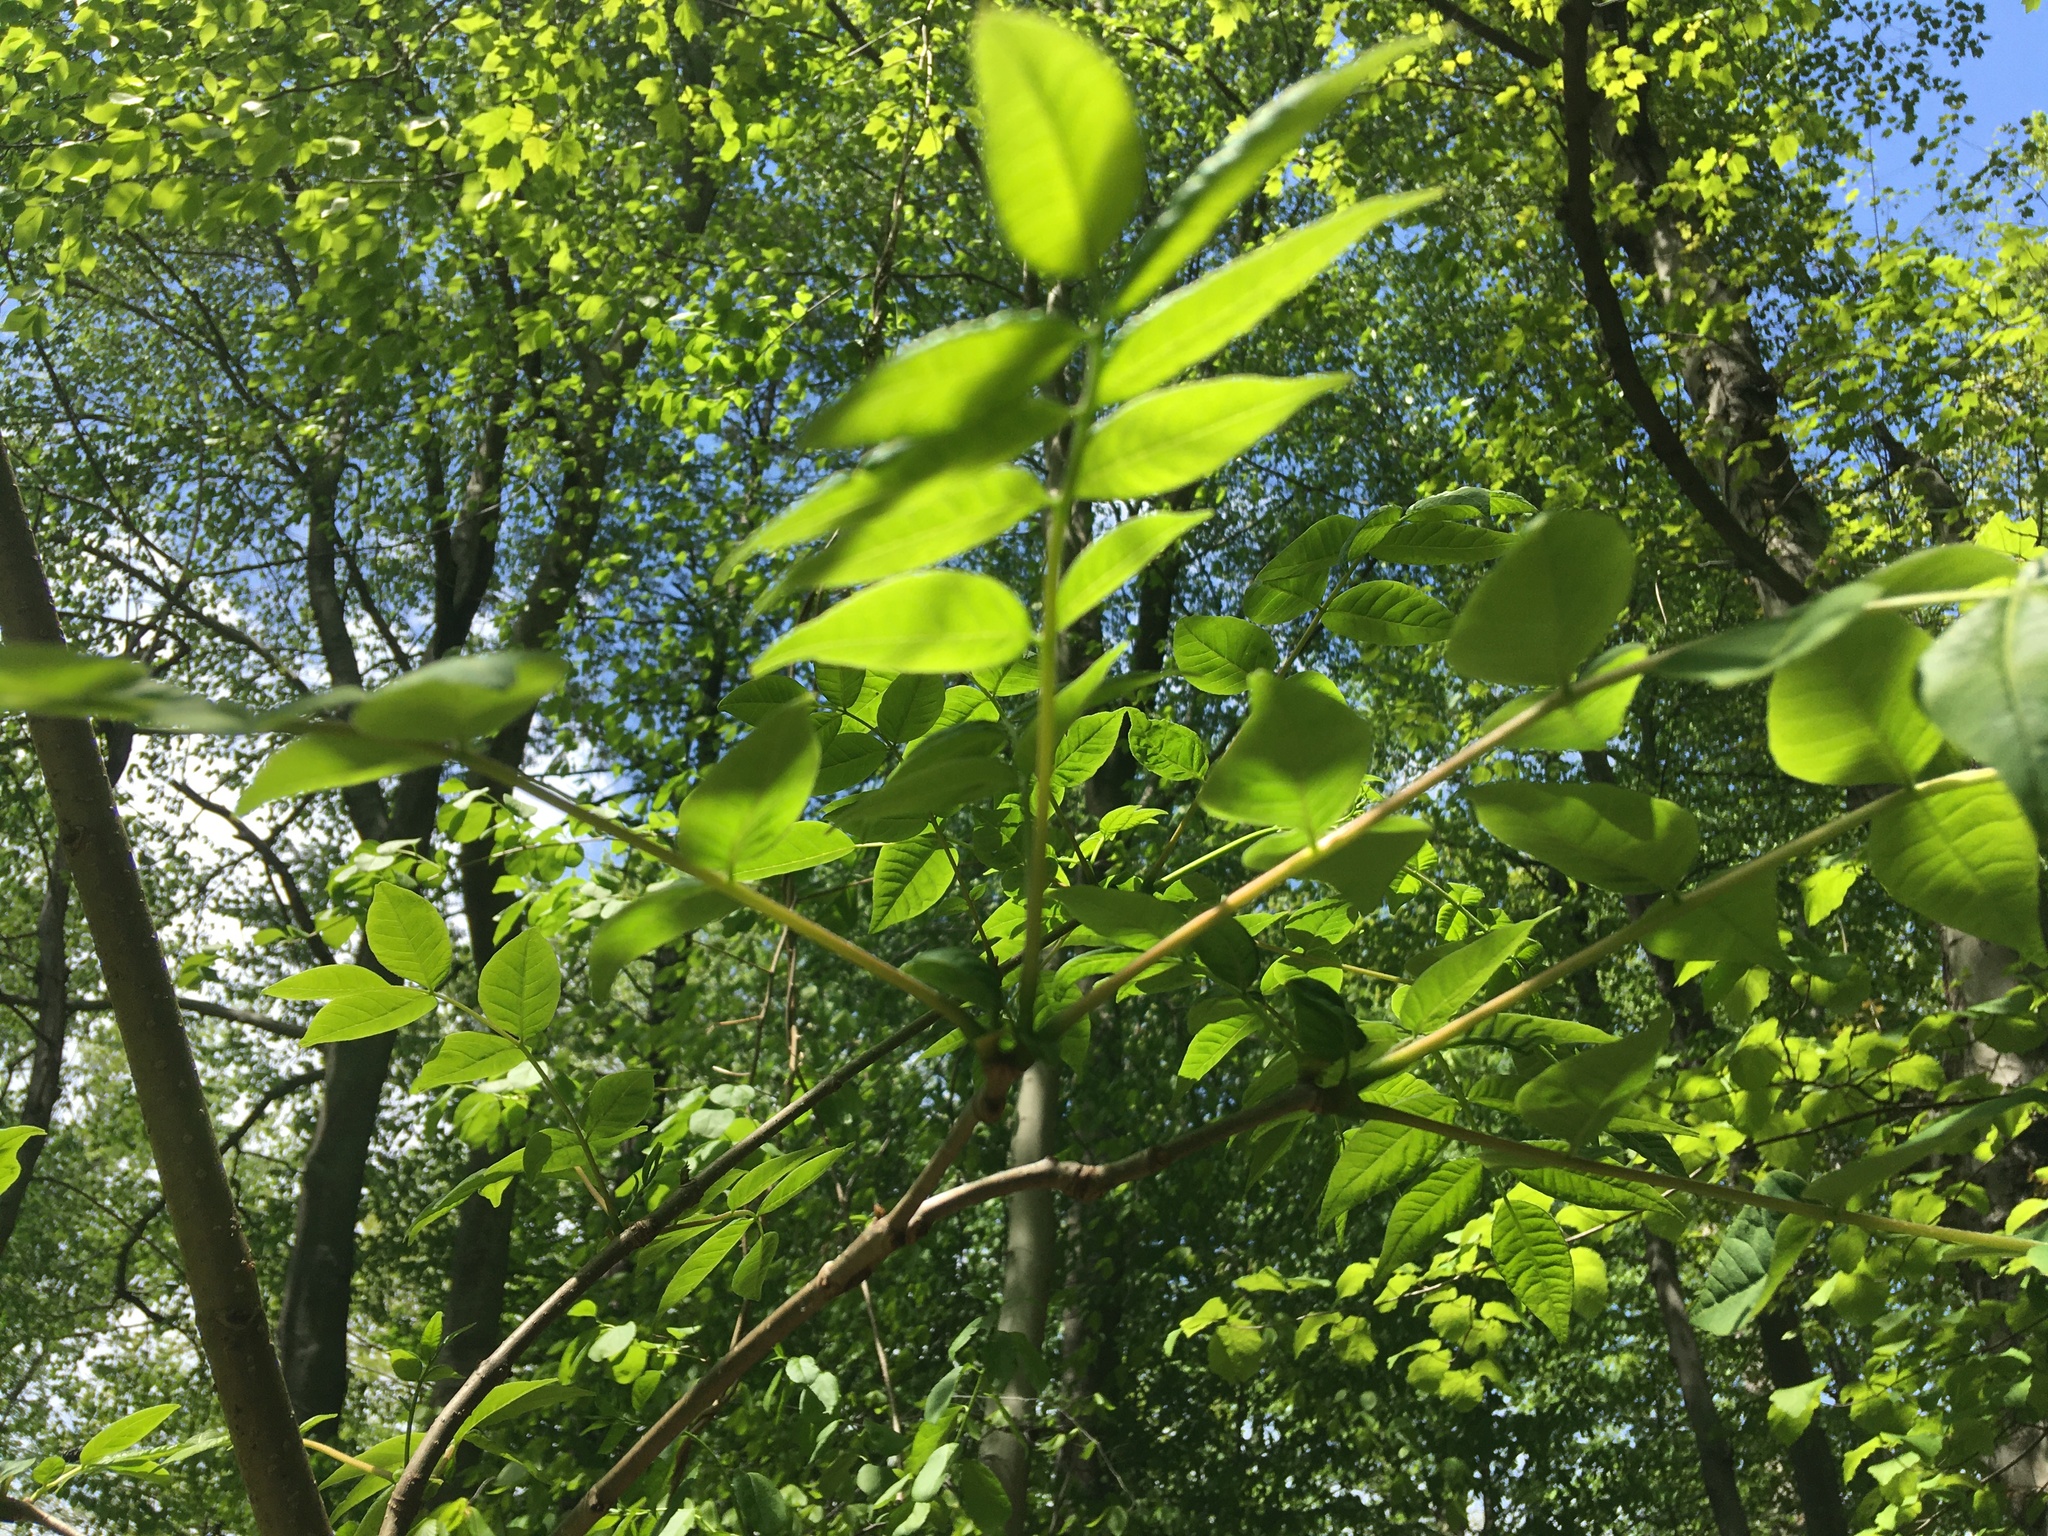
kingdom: Plantae
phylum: Tracheophyta
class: Magnoliopsida
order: Sapindales
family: Rutaceae
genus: Phellodendron
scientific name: Phellodendron amurense
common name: Amur corktree
